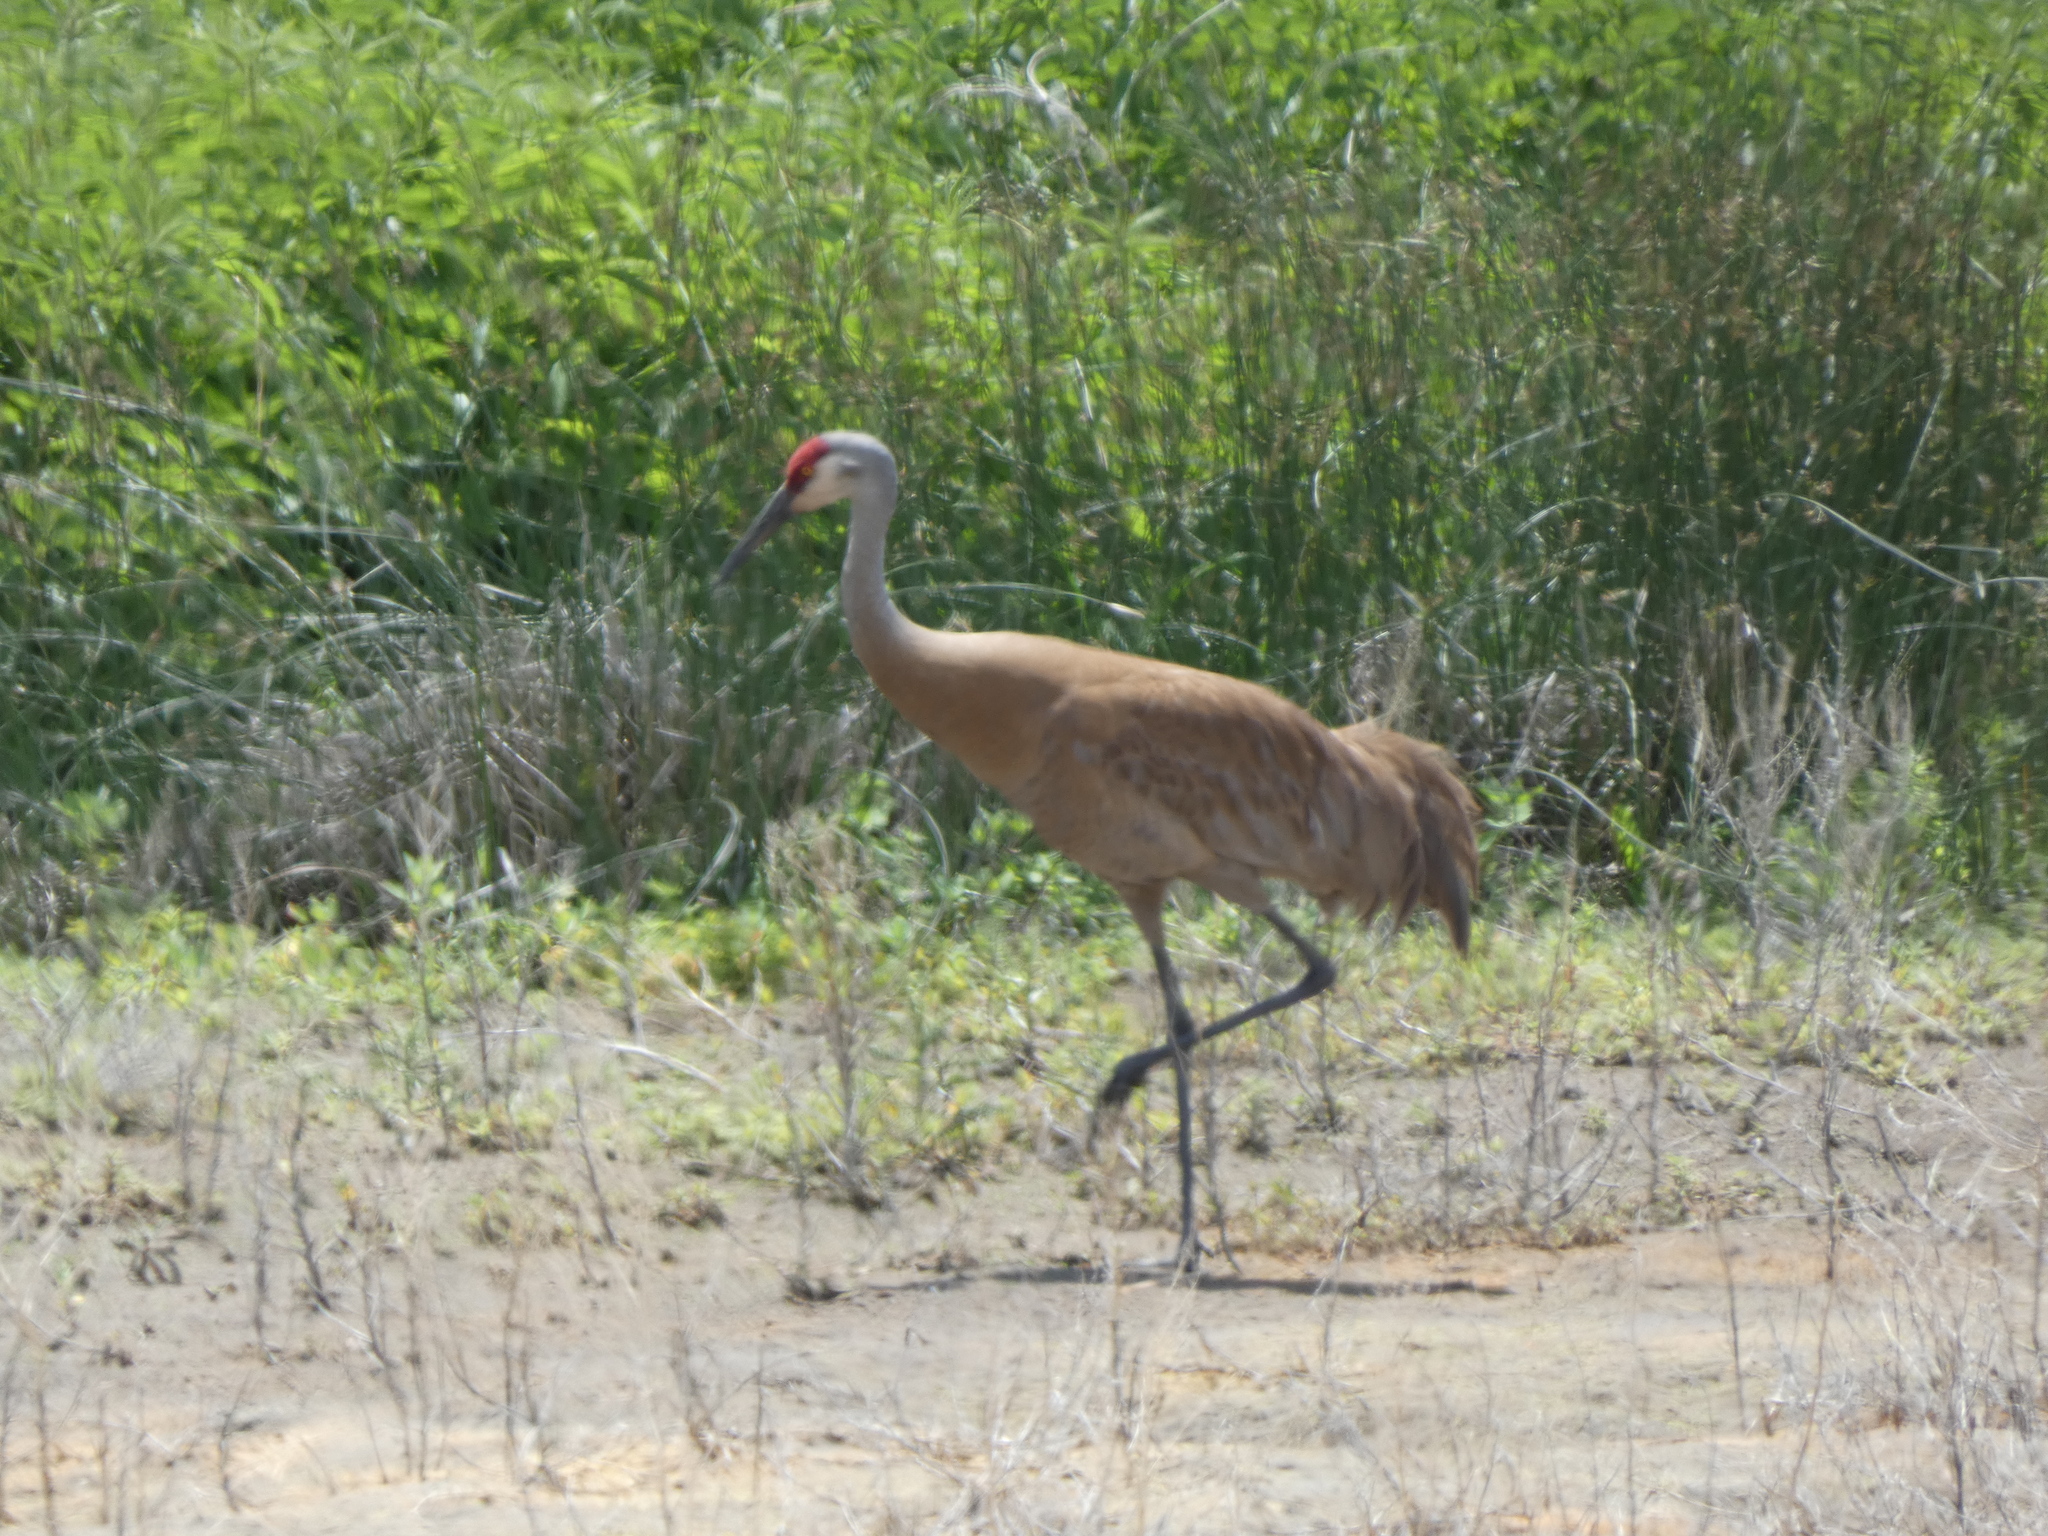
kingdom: Animalia
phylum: Chordata
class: Aves
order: Gruiformes
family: Gruidae
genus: Grus
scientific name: Grus canadensis
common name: Sandhill crane
